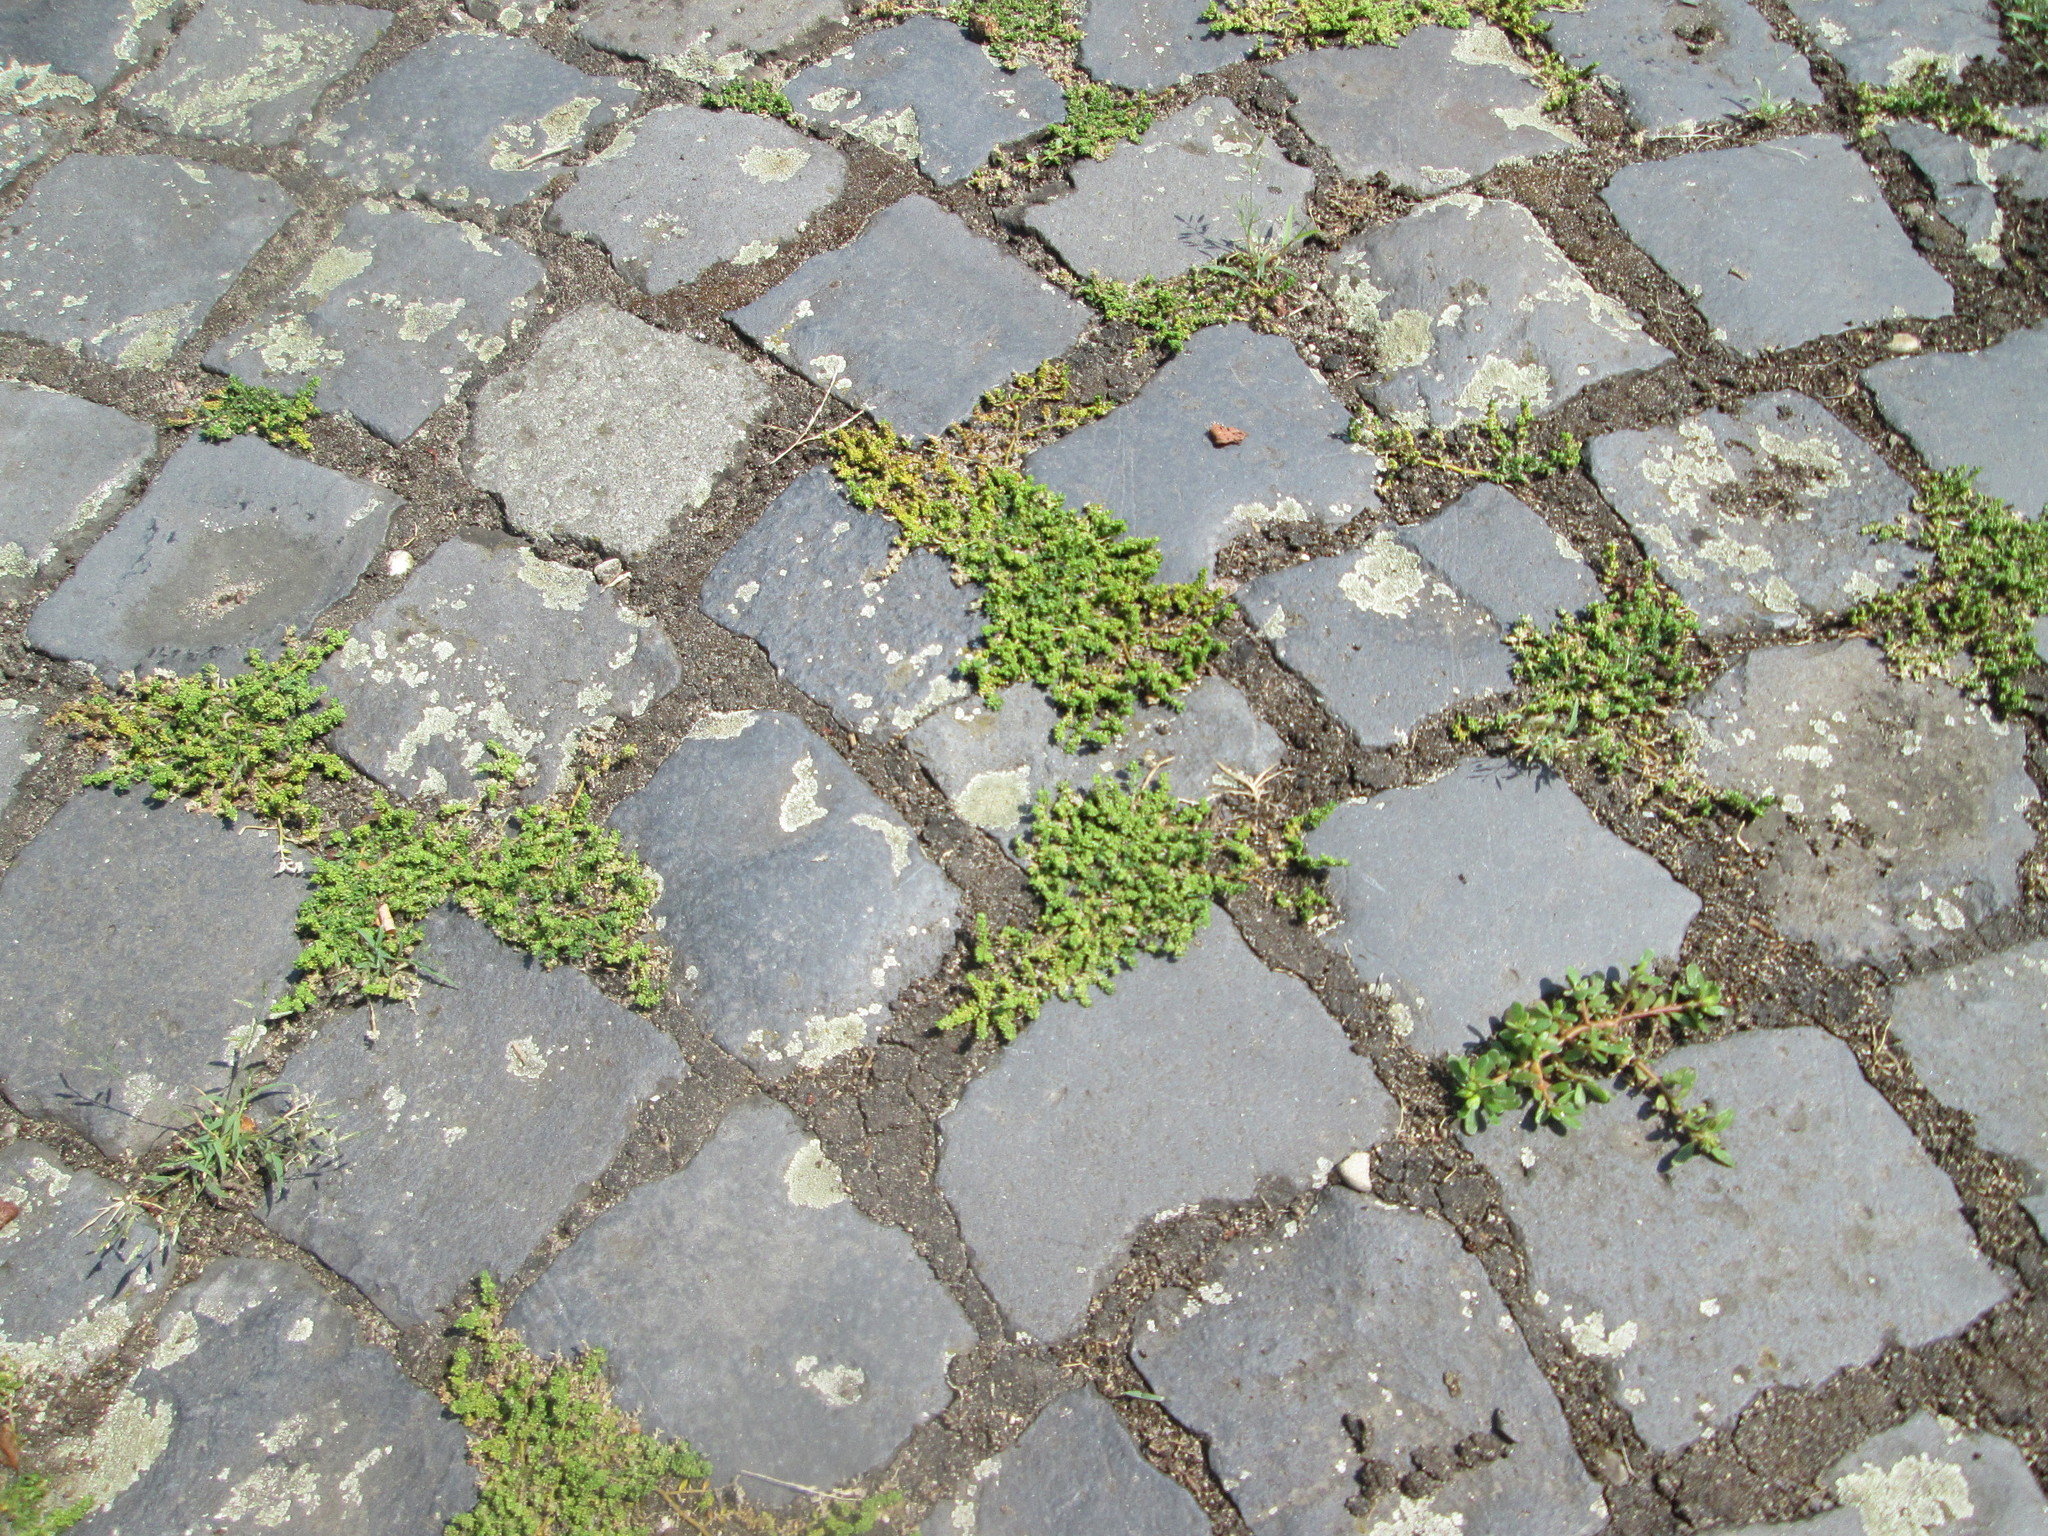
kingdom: Plantae
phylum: Tracheophyta
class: Magnoliopsida
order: Caryophyllales
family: Caryophyllaceae
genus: Herniaria
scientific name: Herniaria glabra
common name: Smooth rupturewort
